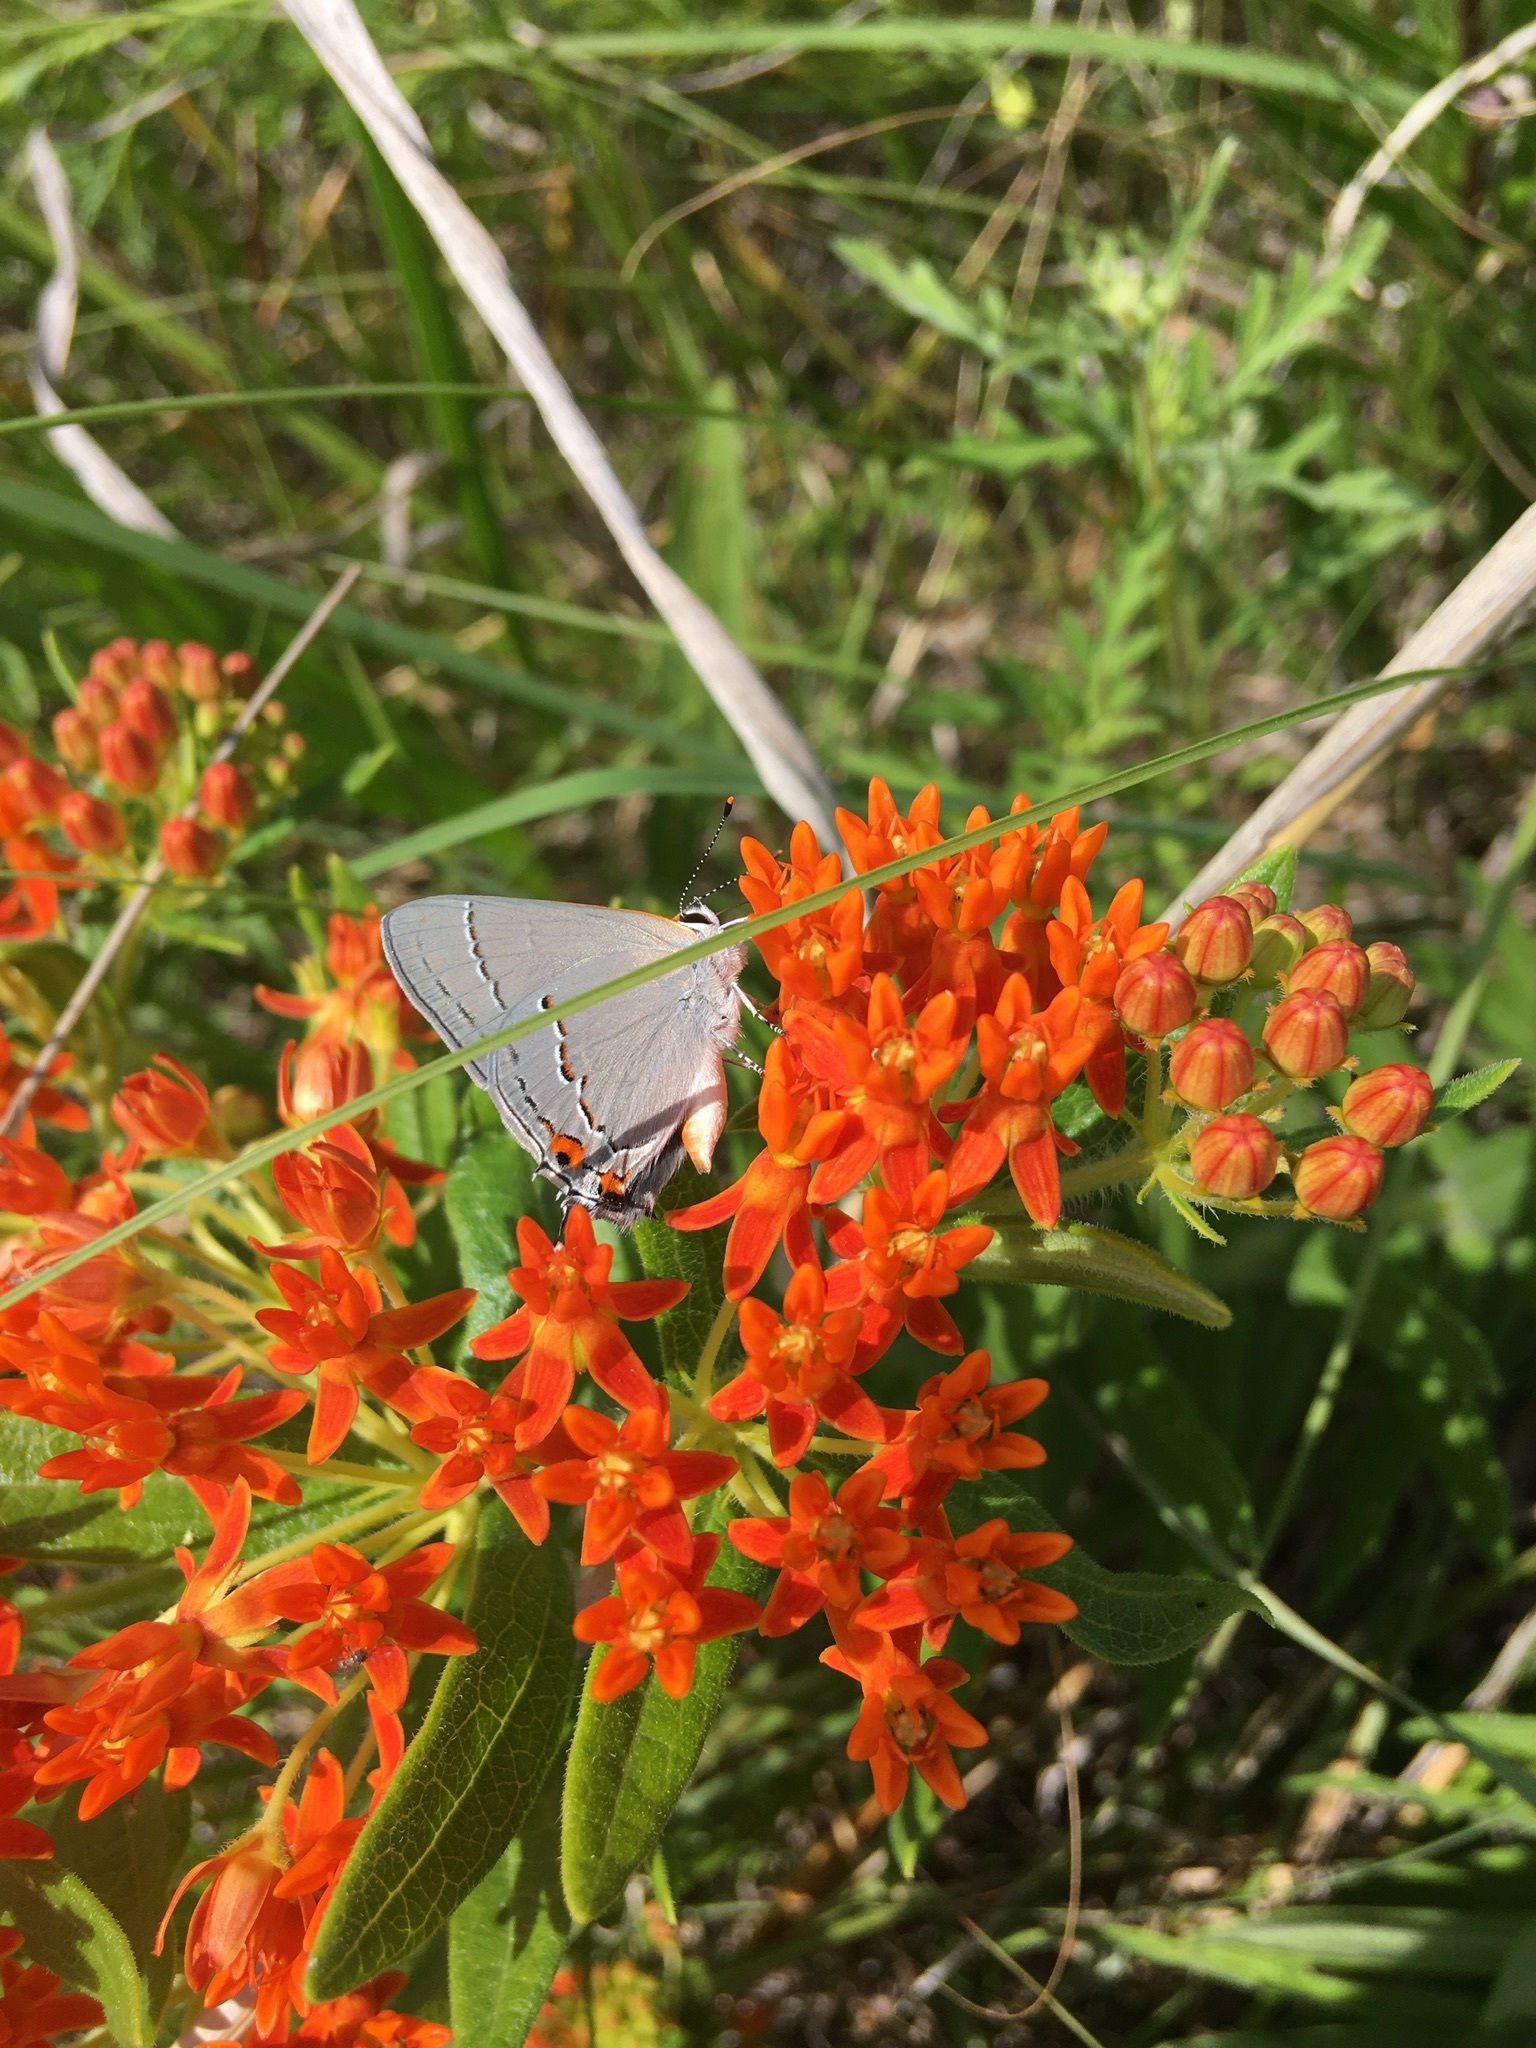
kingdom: Animalia
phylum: Arthropoda
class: Insecta
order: Lepidoptera
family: Lycaenidae
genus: Strymon
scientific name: Strymon melinus
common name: Gray hairstreak
